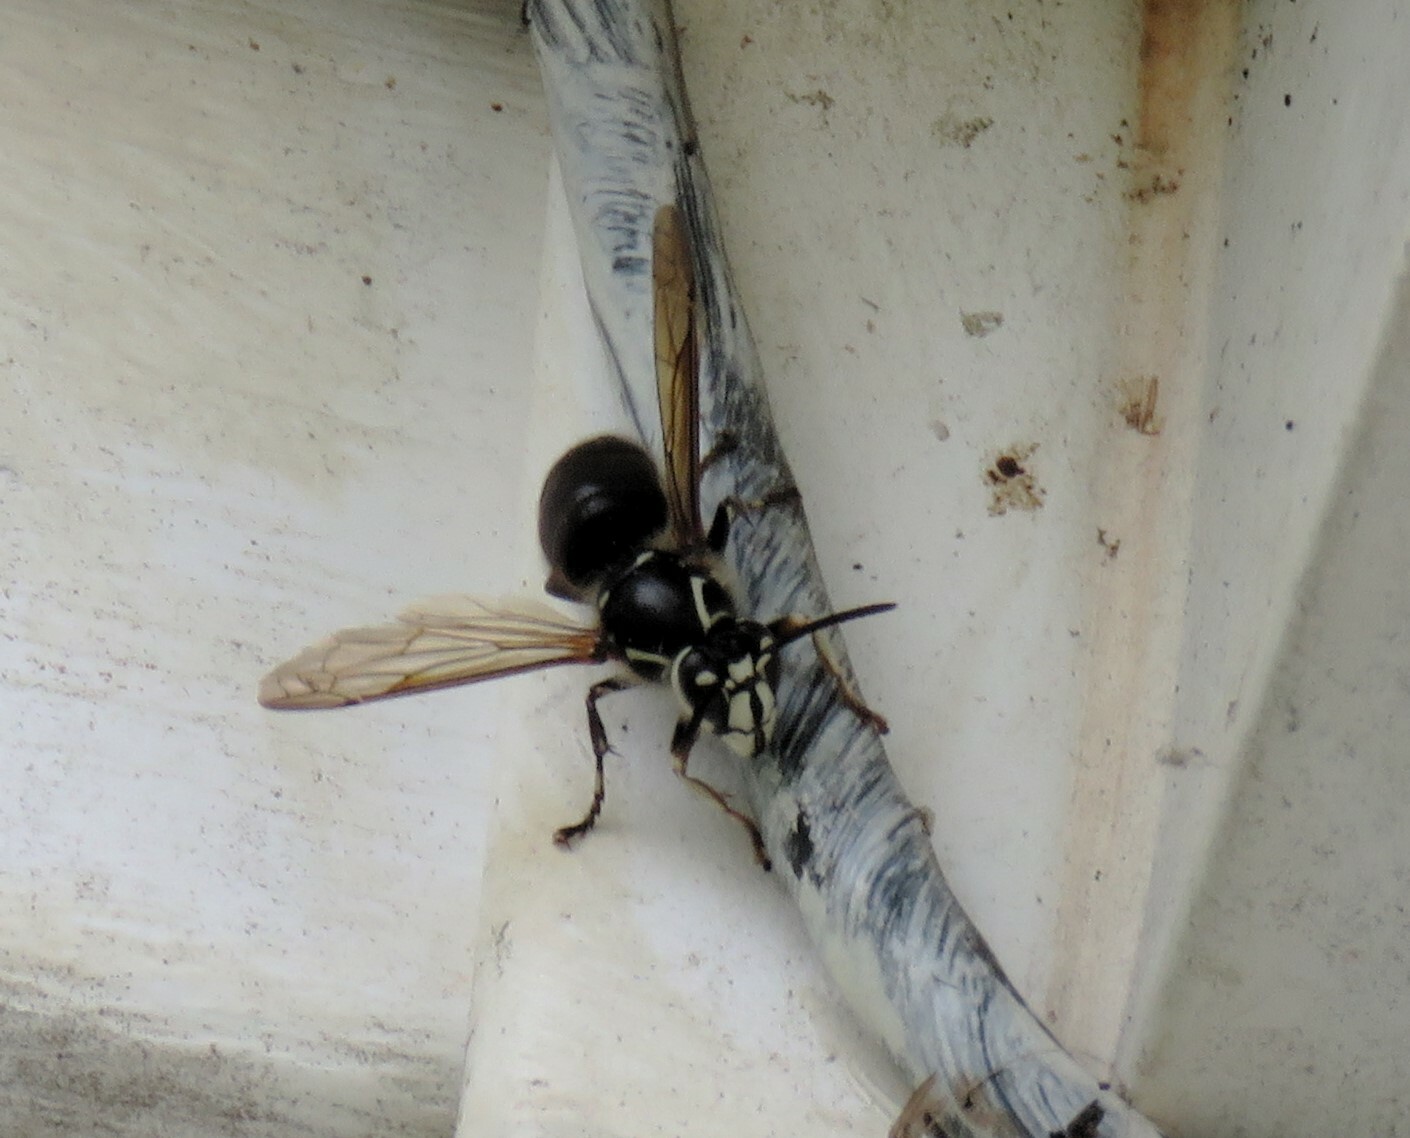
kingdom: Animalia
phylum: Arthropoda
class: Insecta
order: Hymenoptera
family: Vespidae
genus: Dolichovespula
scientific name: Dolichovespula maculata
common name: Bald-faced hornet
